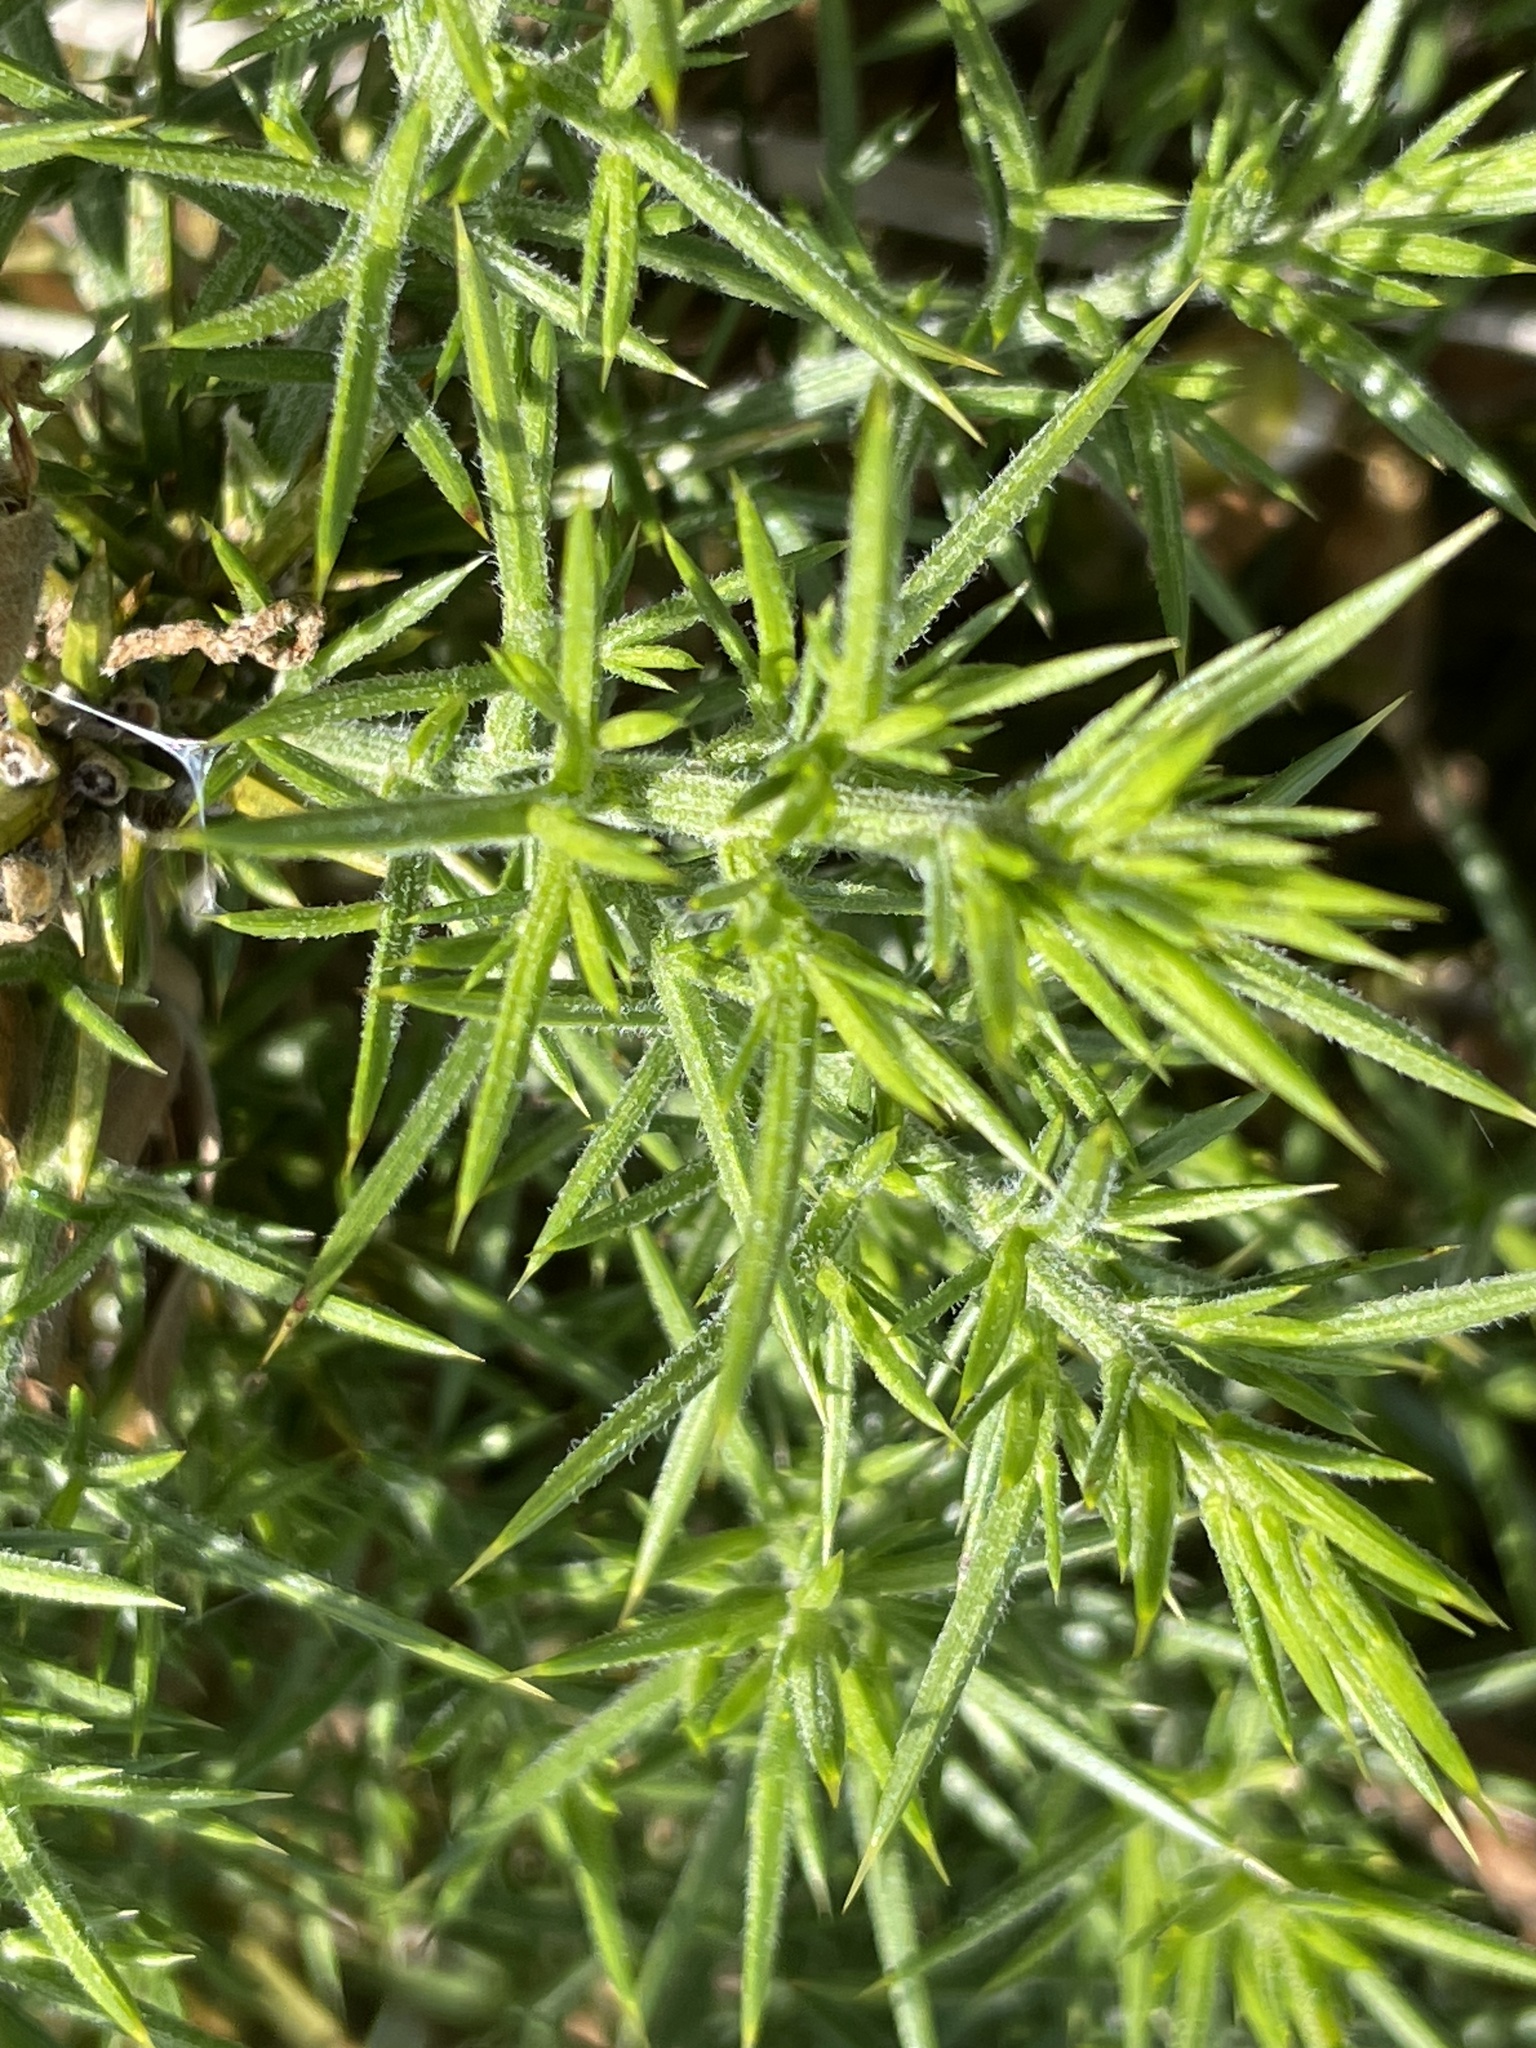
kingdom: Plantae
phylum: Tracheophyta
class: Magnoliopsida
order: Fabales
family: Fabaceae
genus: Ulex
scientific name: Ulex europaeus
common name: Common gorse
